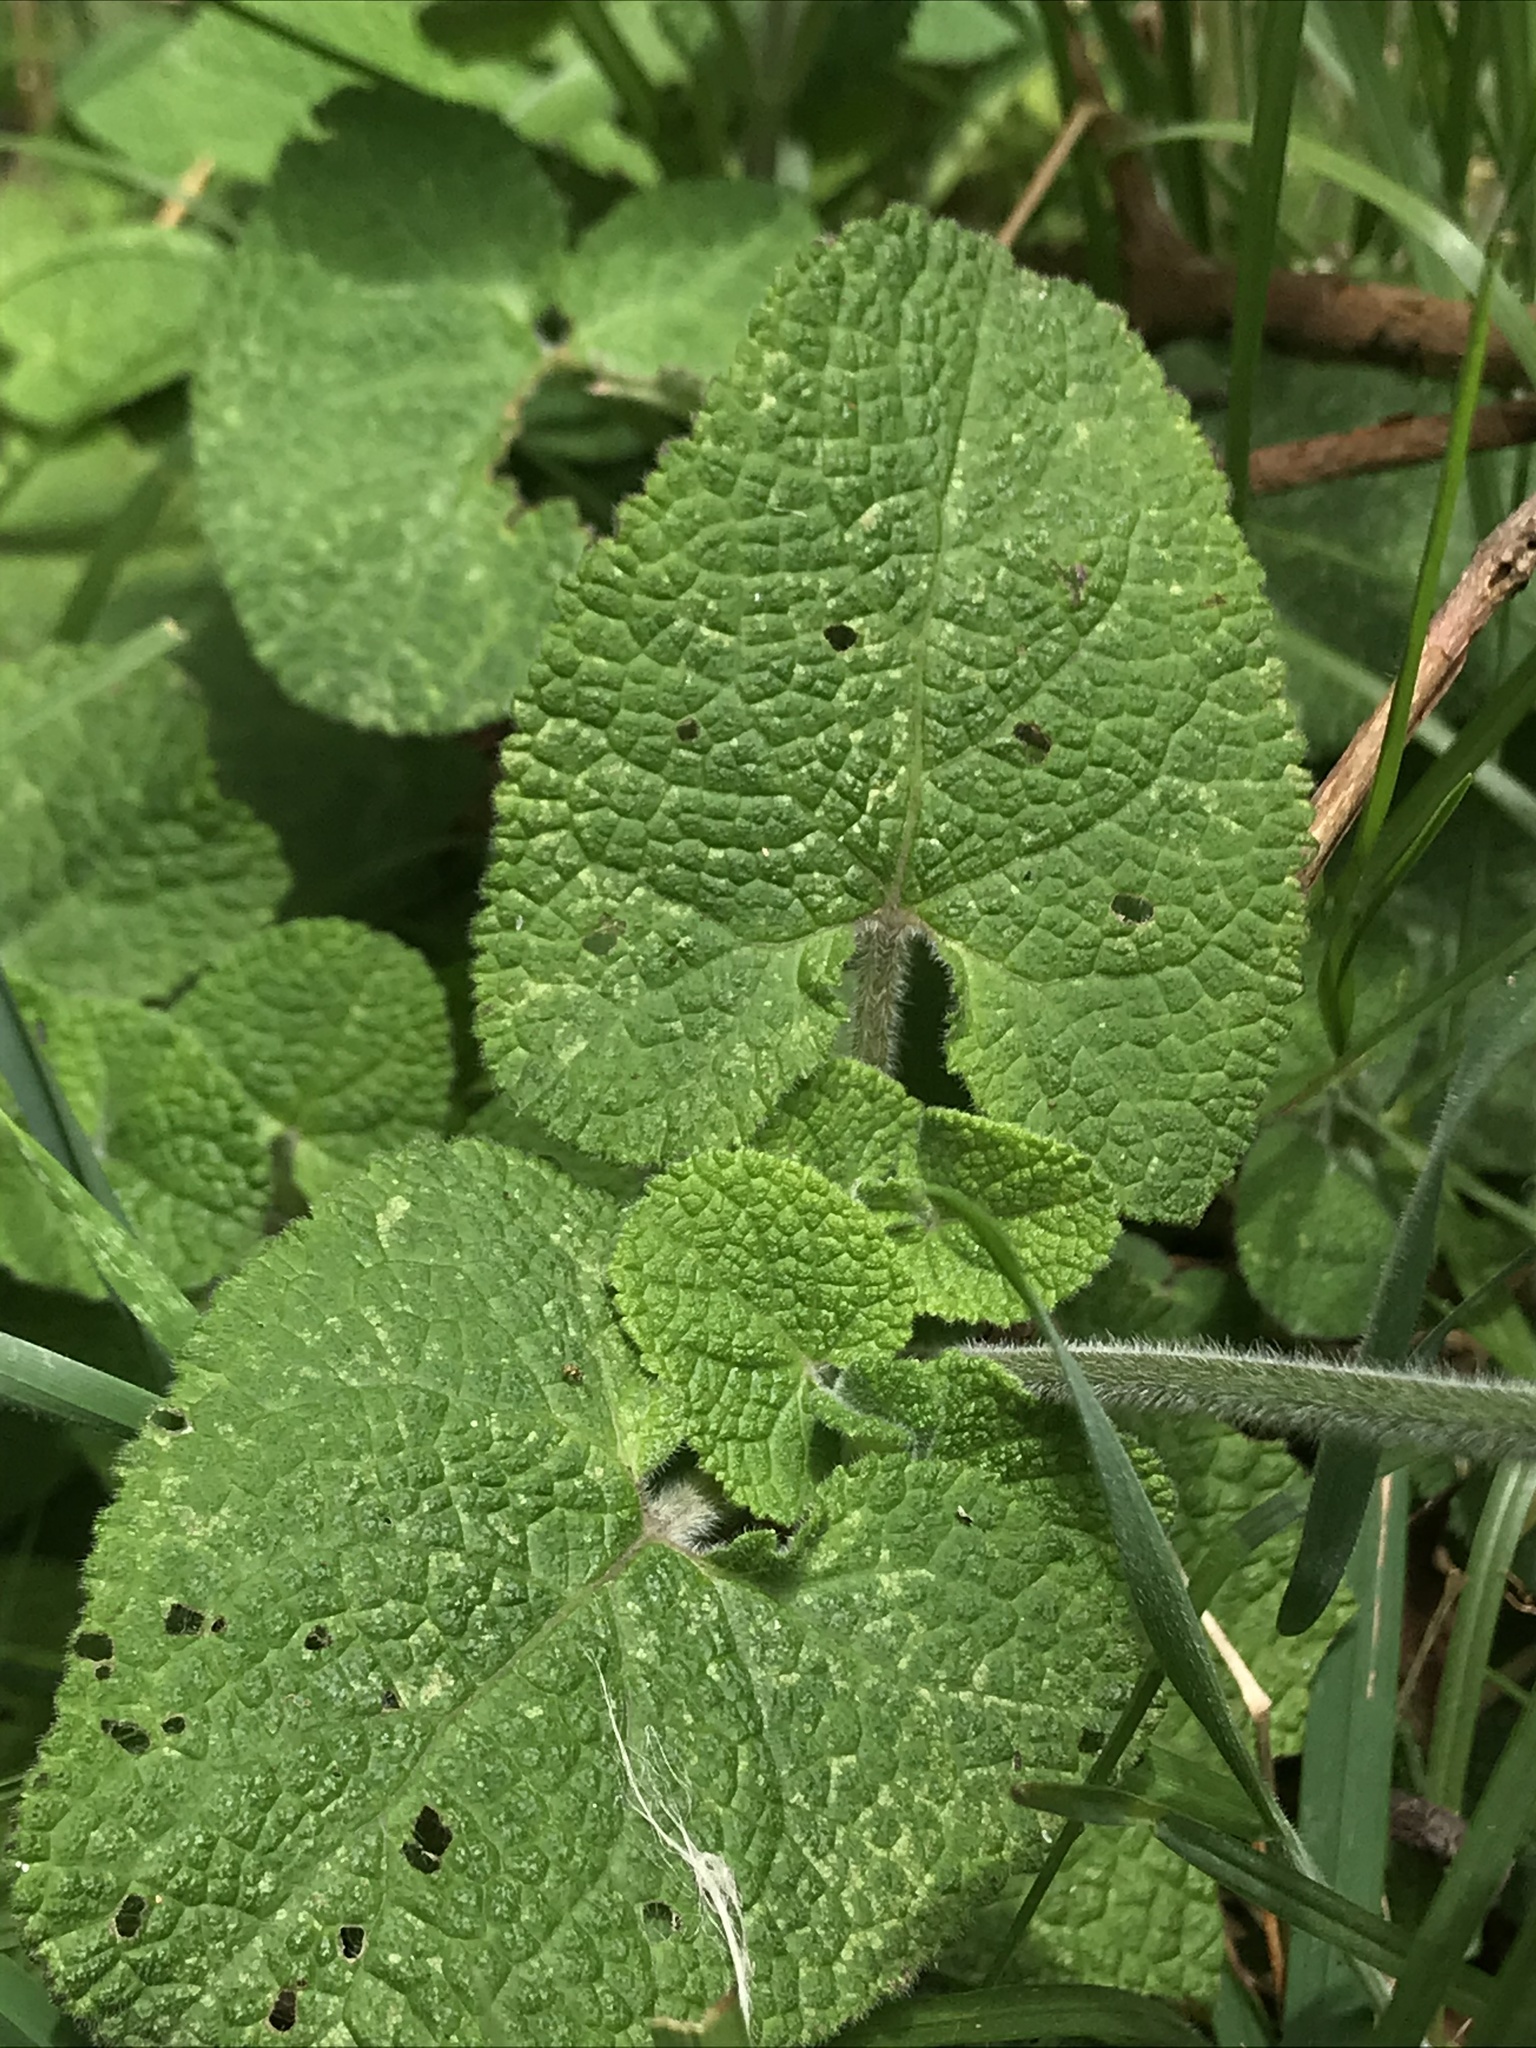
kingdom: Plantae
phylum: Tracheophyta
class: Magnoliopsida
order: Lamiales
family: Lamiaceae
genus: Salvia
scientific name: Salvia palifolia
